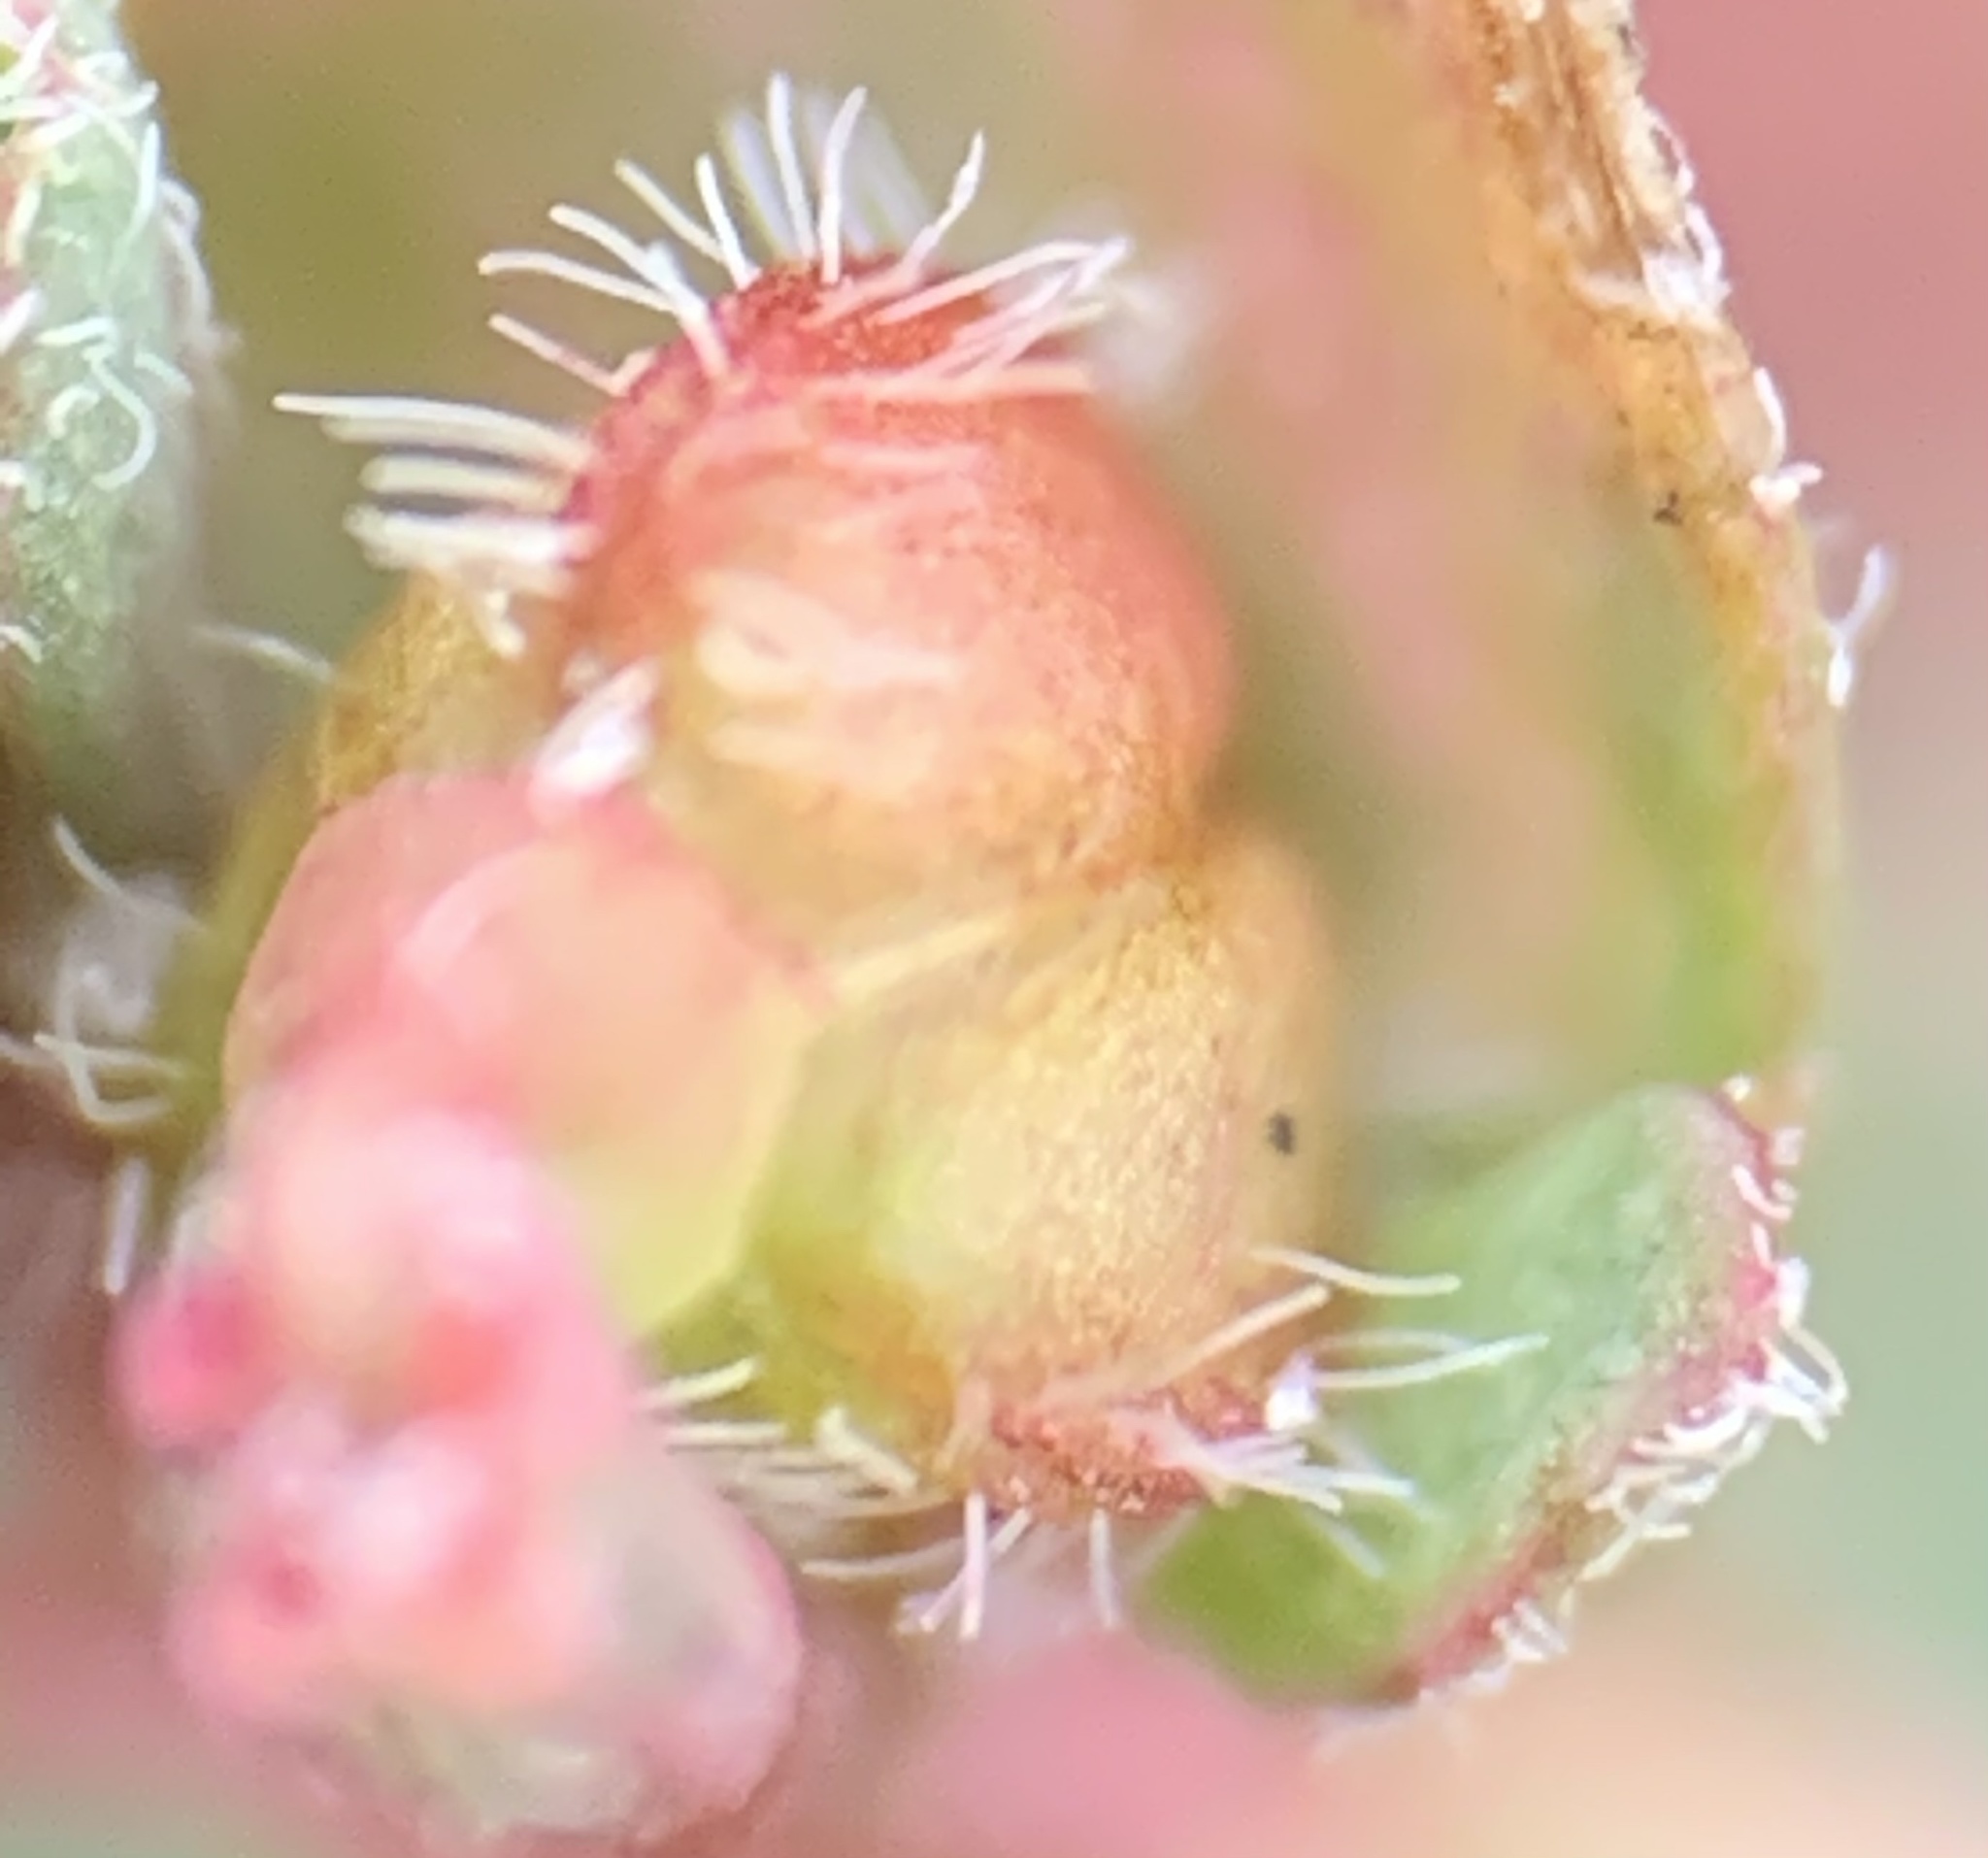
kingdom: Plantae
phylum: Tracheophyta
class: Magnoliopsida
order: Malpighiales
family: Euphorbiaceae
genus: Euphorbia
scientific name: Euphorbia prostrata
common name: Prostrate sandmat
